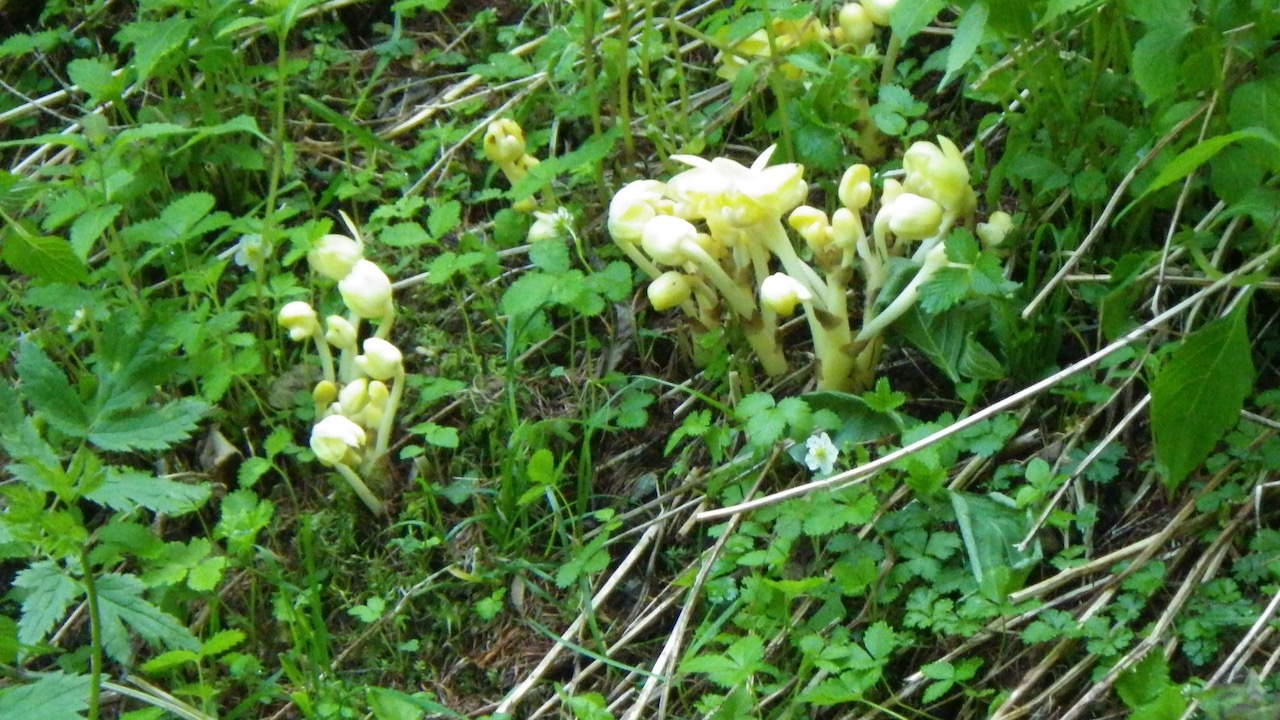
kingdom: Plantae
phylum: Tracheophyta
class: Liliopsida
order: Asparagales
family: Orchidaceae
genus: Yoania
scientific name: Yoania flava
